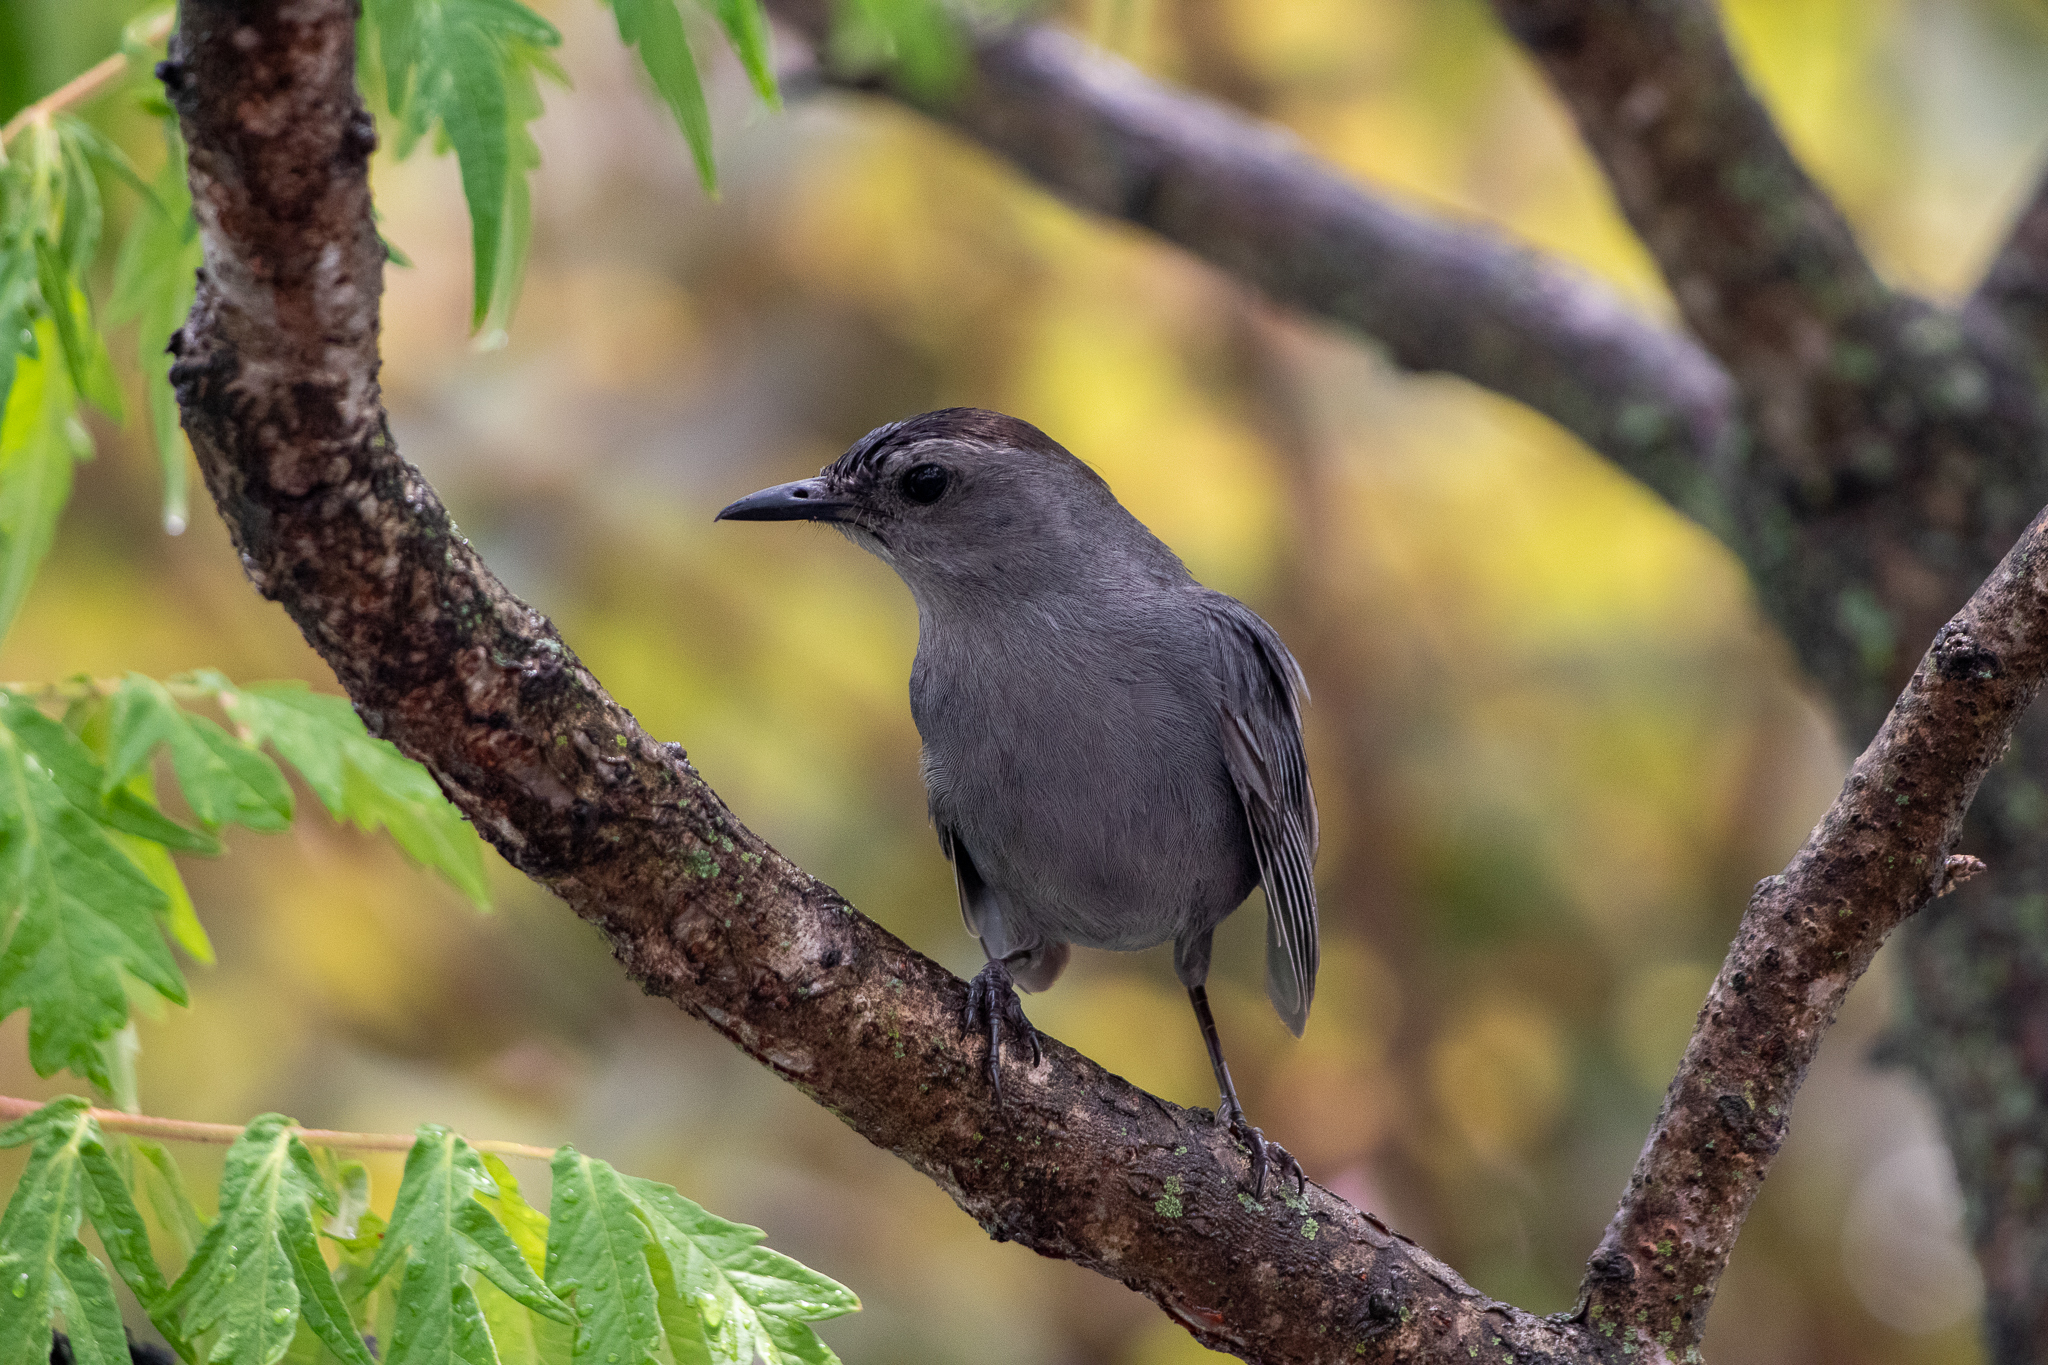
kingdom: Animalia
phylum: Chordata
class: Aves
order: Passeriformes
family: Mimidae
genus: Dumetella
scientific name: Dumetella carolinensis
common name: Gray catbird
